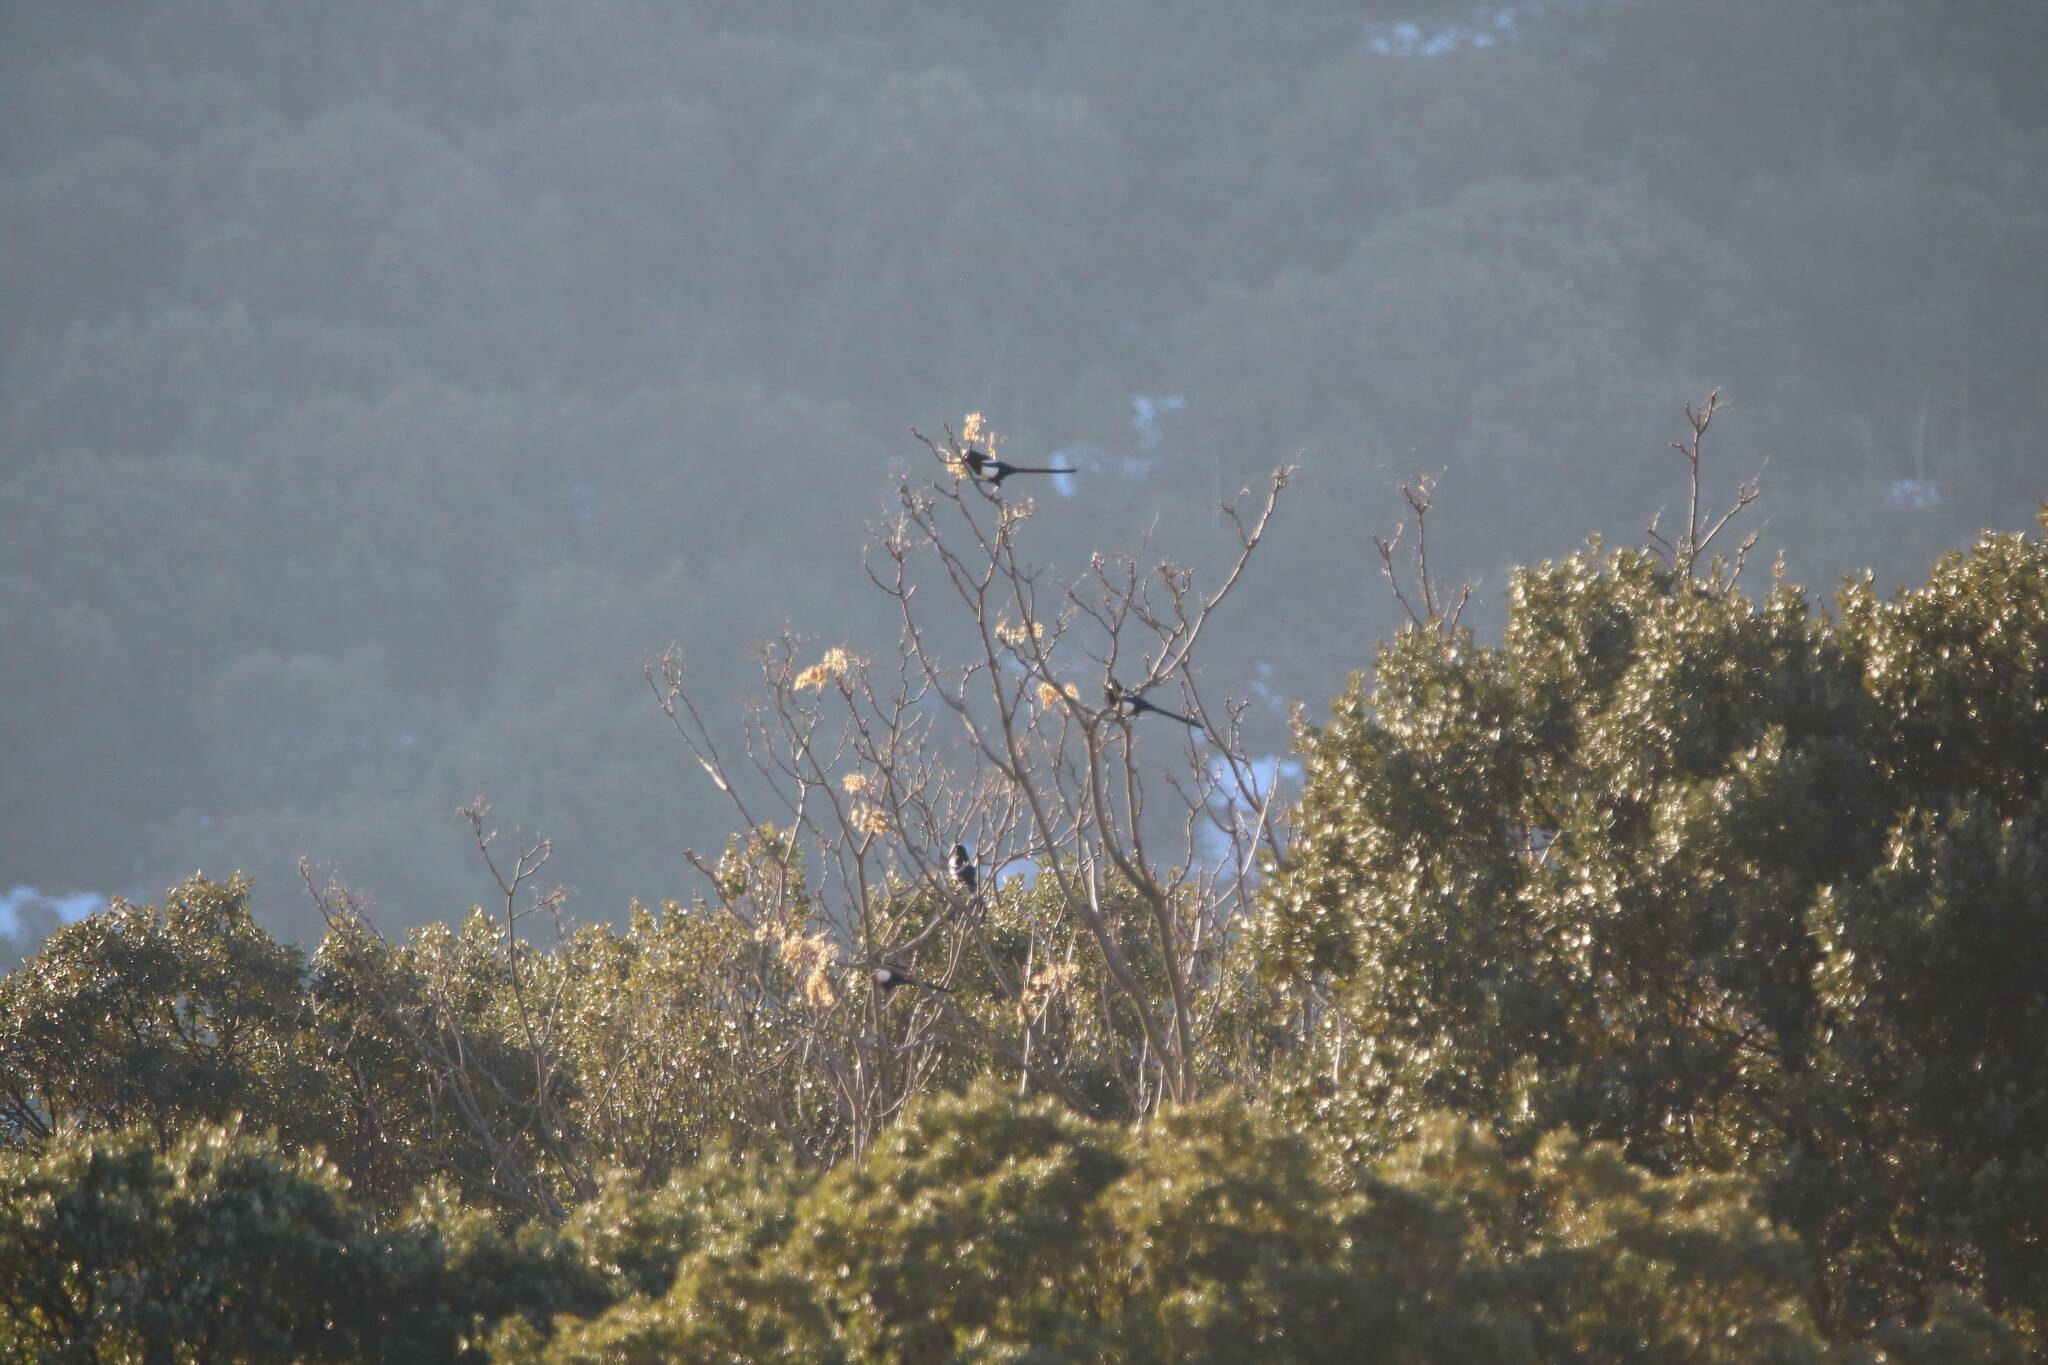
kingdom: Animalia
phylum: Chordata
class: Aves
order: Passeriformes
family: Corvidae
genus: Pica
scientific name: Pica mauritanica
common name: Maghreb magpie
